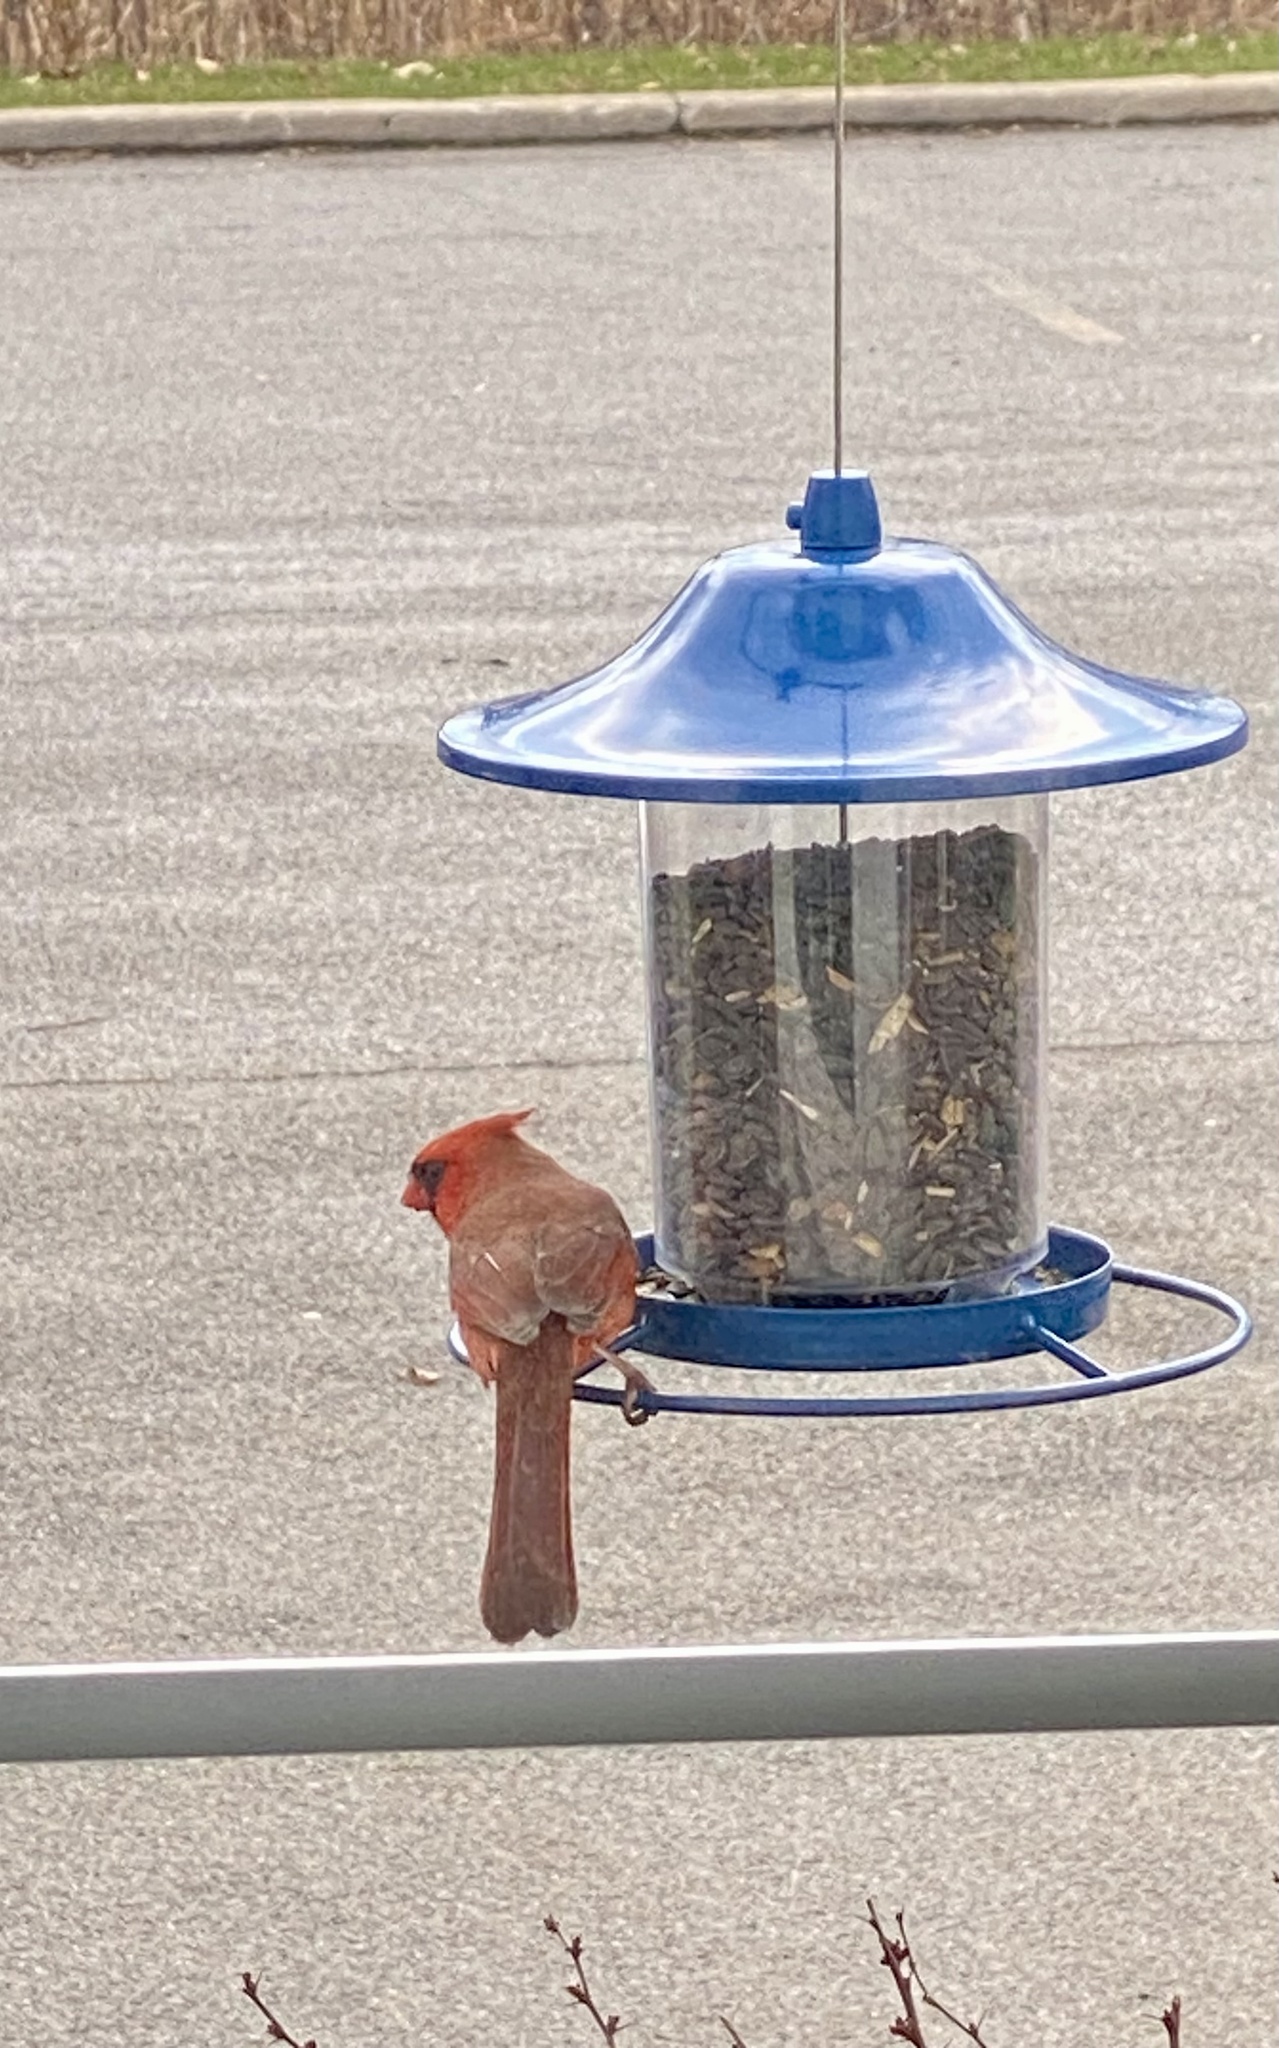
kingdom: Animalia
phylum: Chordata
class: Aves
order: Passeriformes
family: Cardinalidae
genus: Cardinalis
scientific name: Cardinalis cardinalis
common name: Northern cardinal
